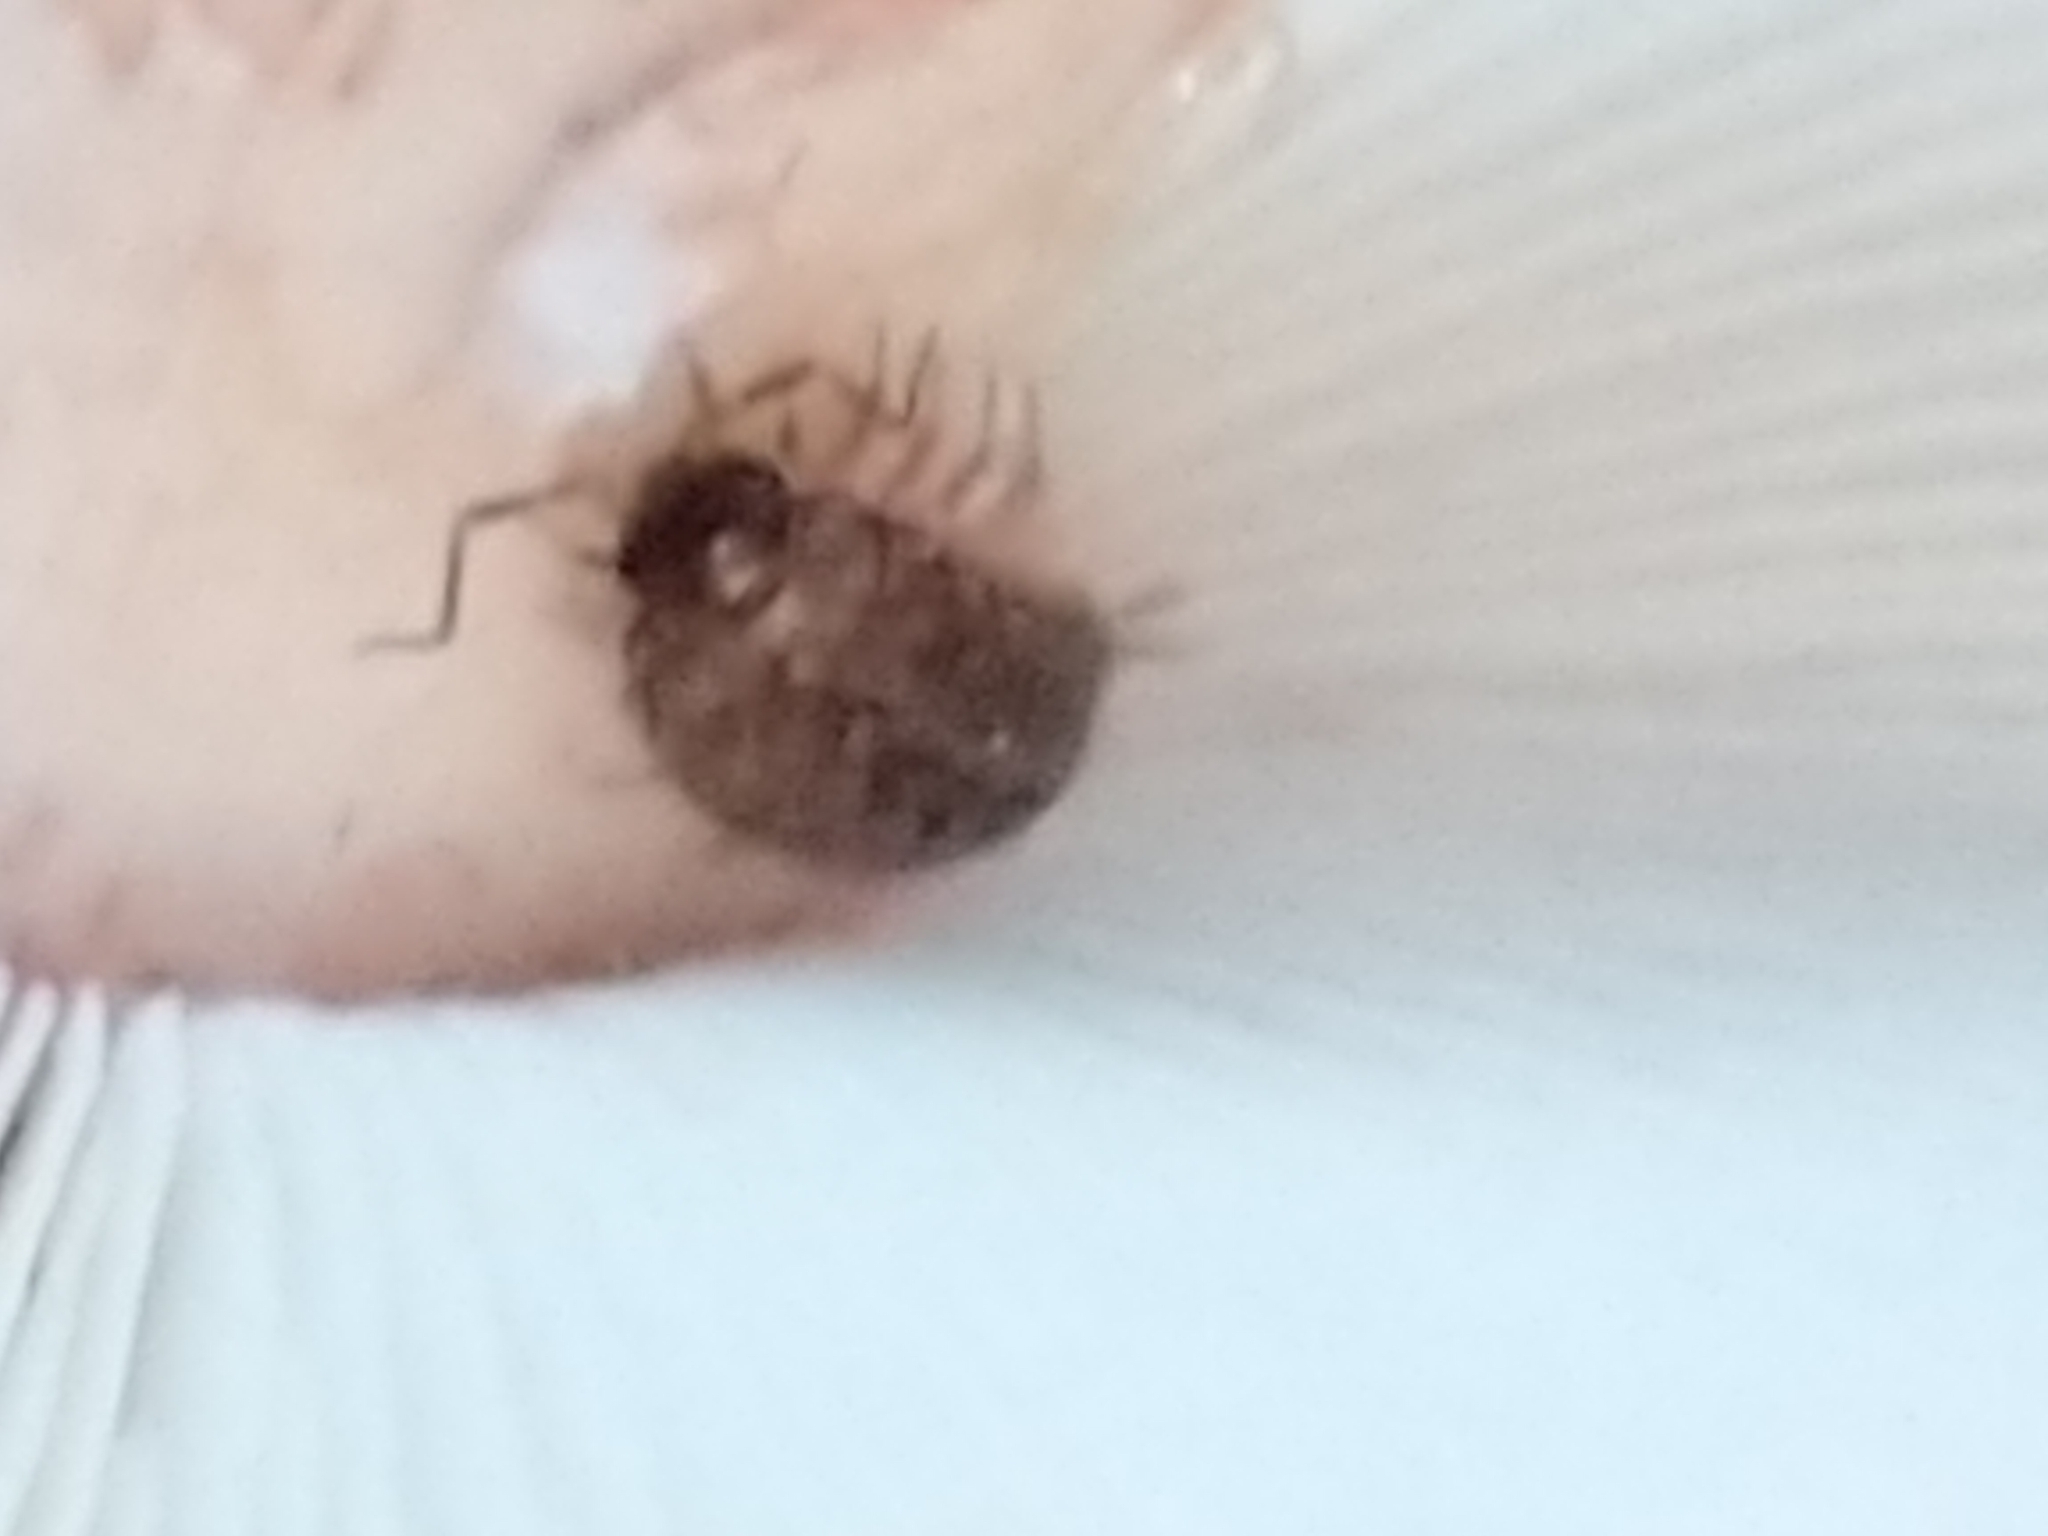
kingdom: Animalia
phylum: Arthropoda
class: Malacostraca
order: Isopoda
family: Philosciidae
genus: Philoscia
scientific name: Philoscia muscorum
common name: Common striped woodlouse
